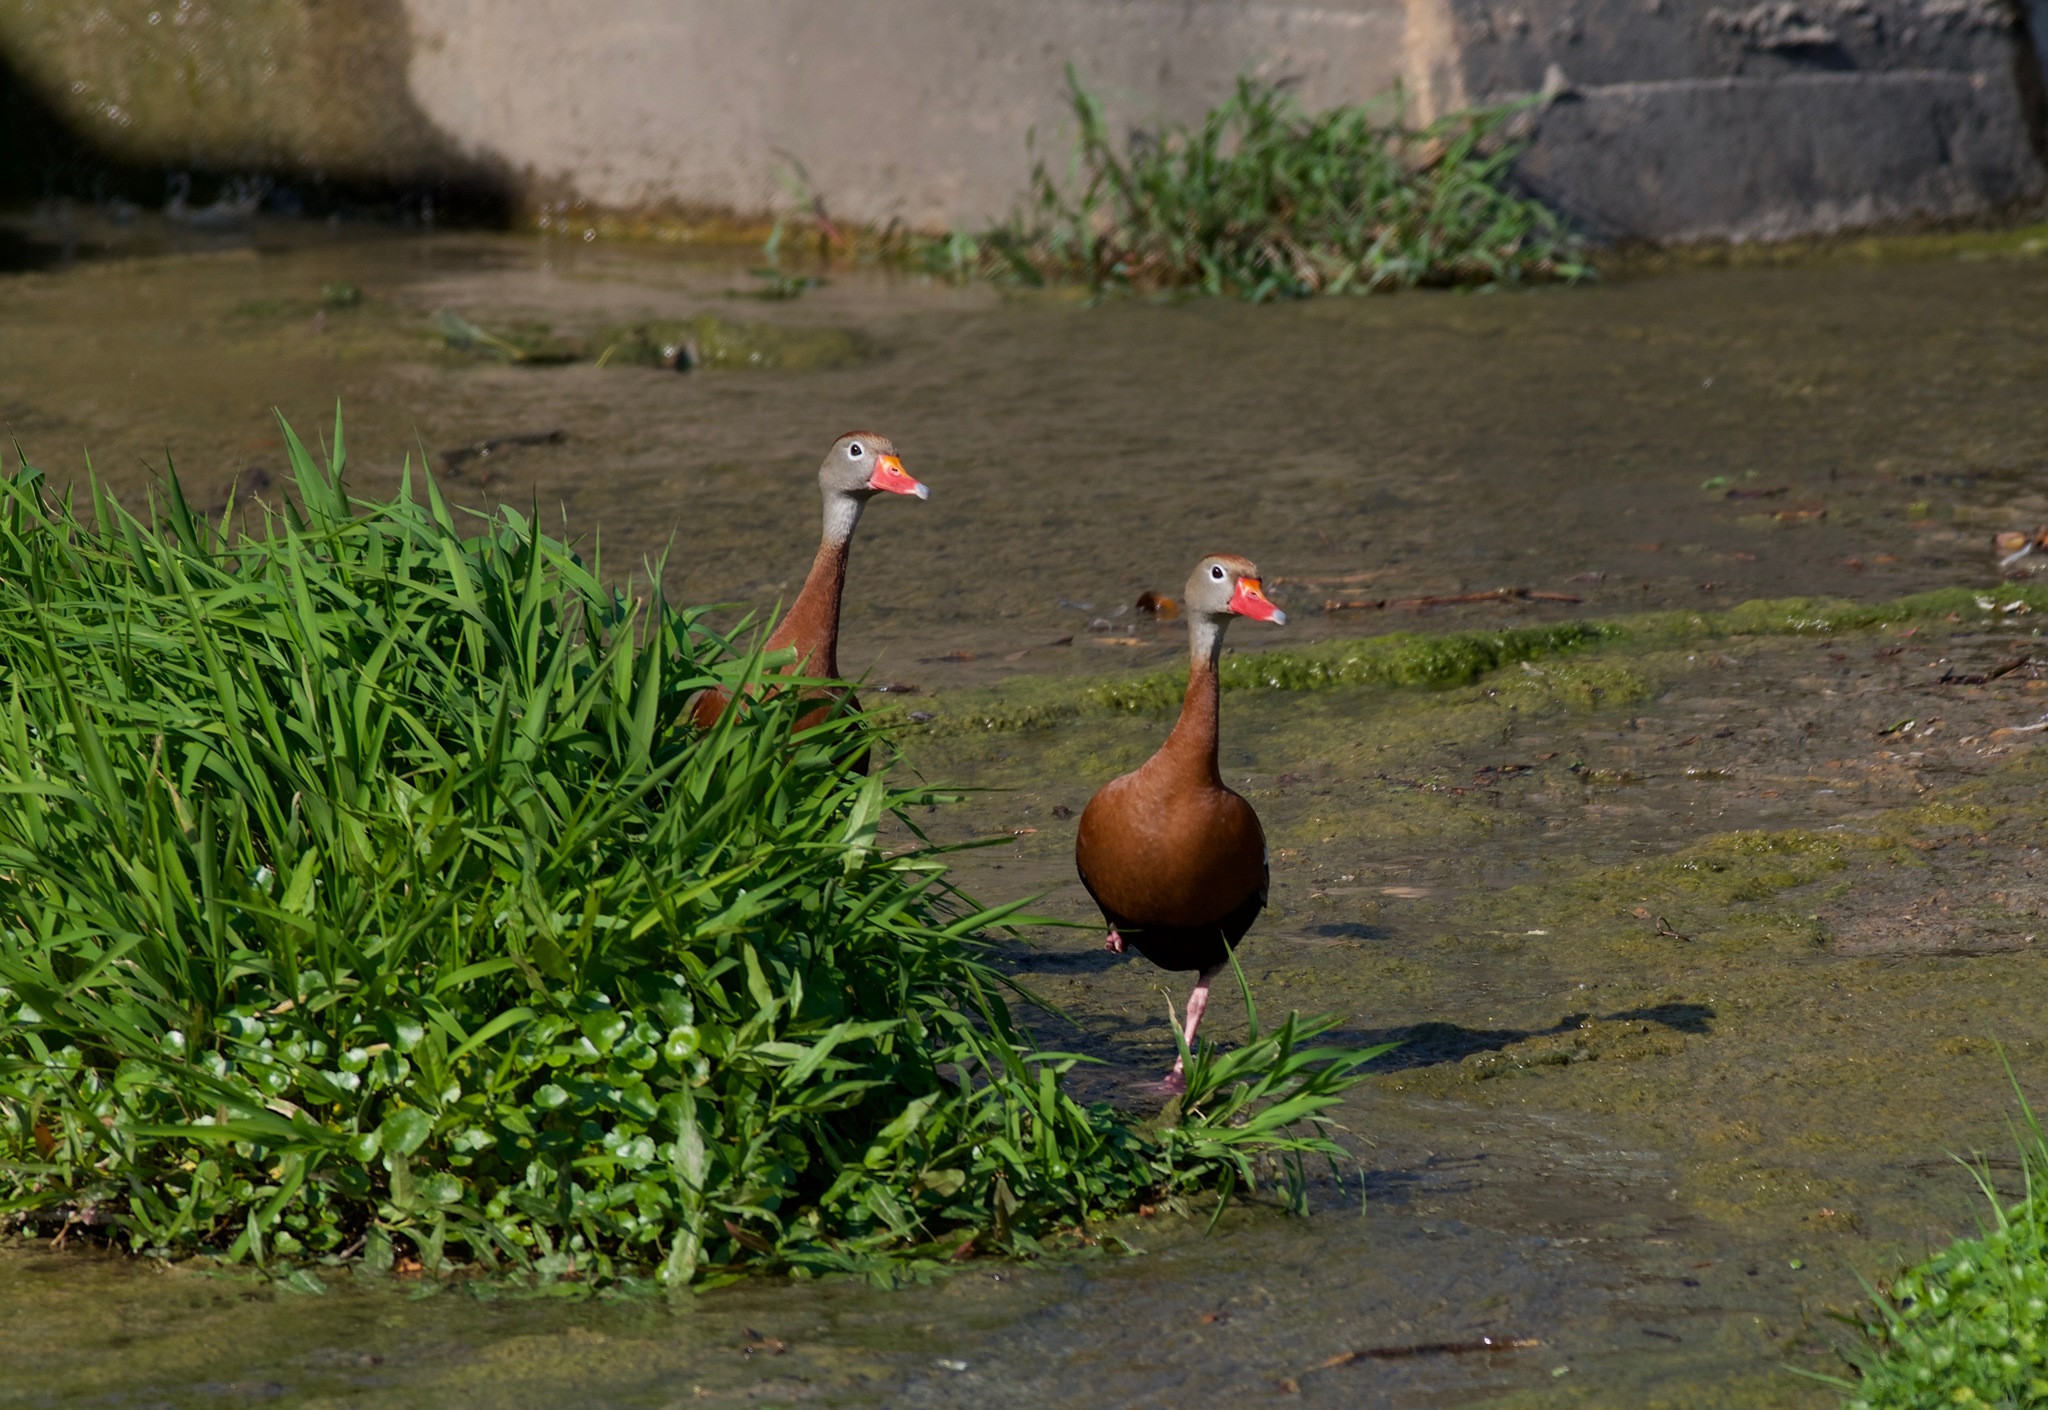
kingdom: Animalia
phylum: Chordata
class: Aves
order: Anseriformes
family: Anatidae
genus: Dendrocygna
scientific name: Dendrocygna autumnalis
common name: Black-bellied whistling duck
